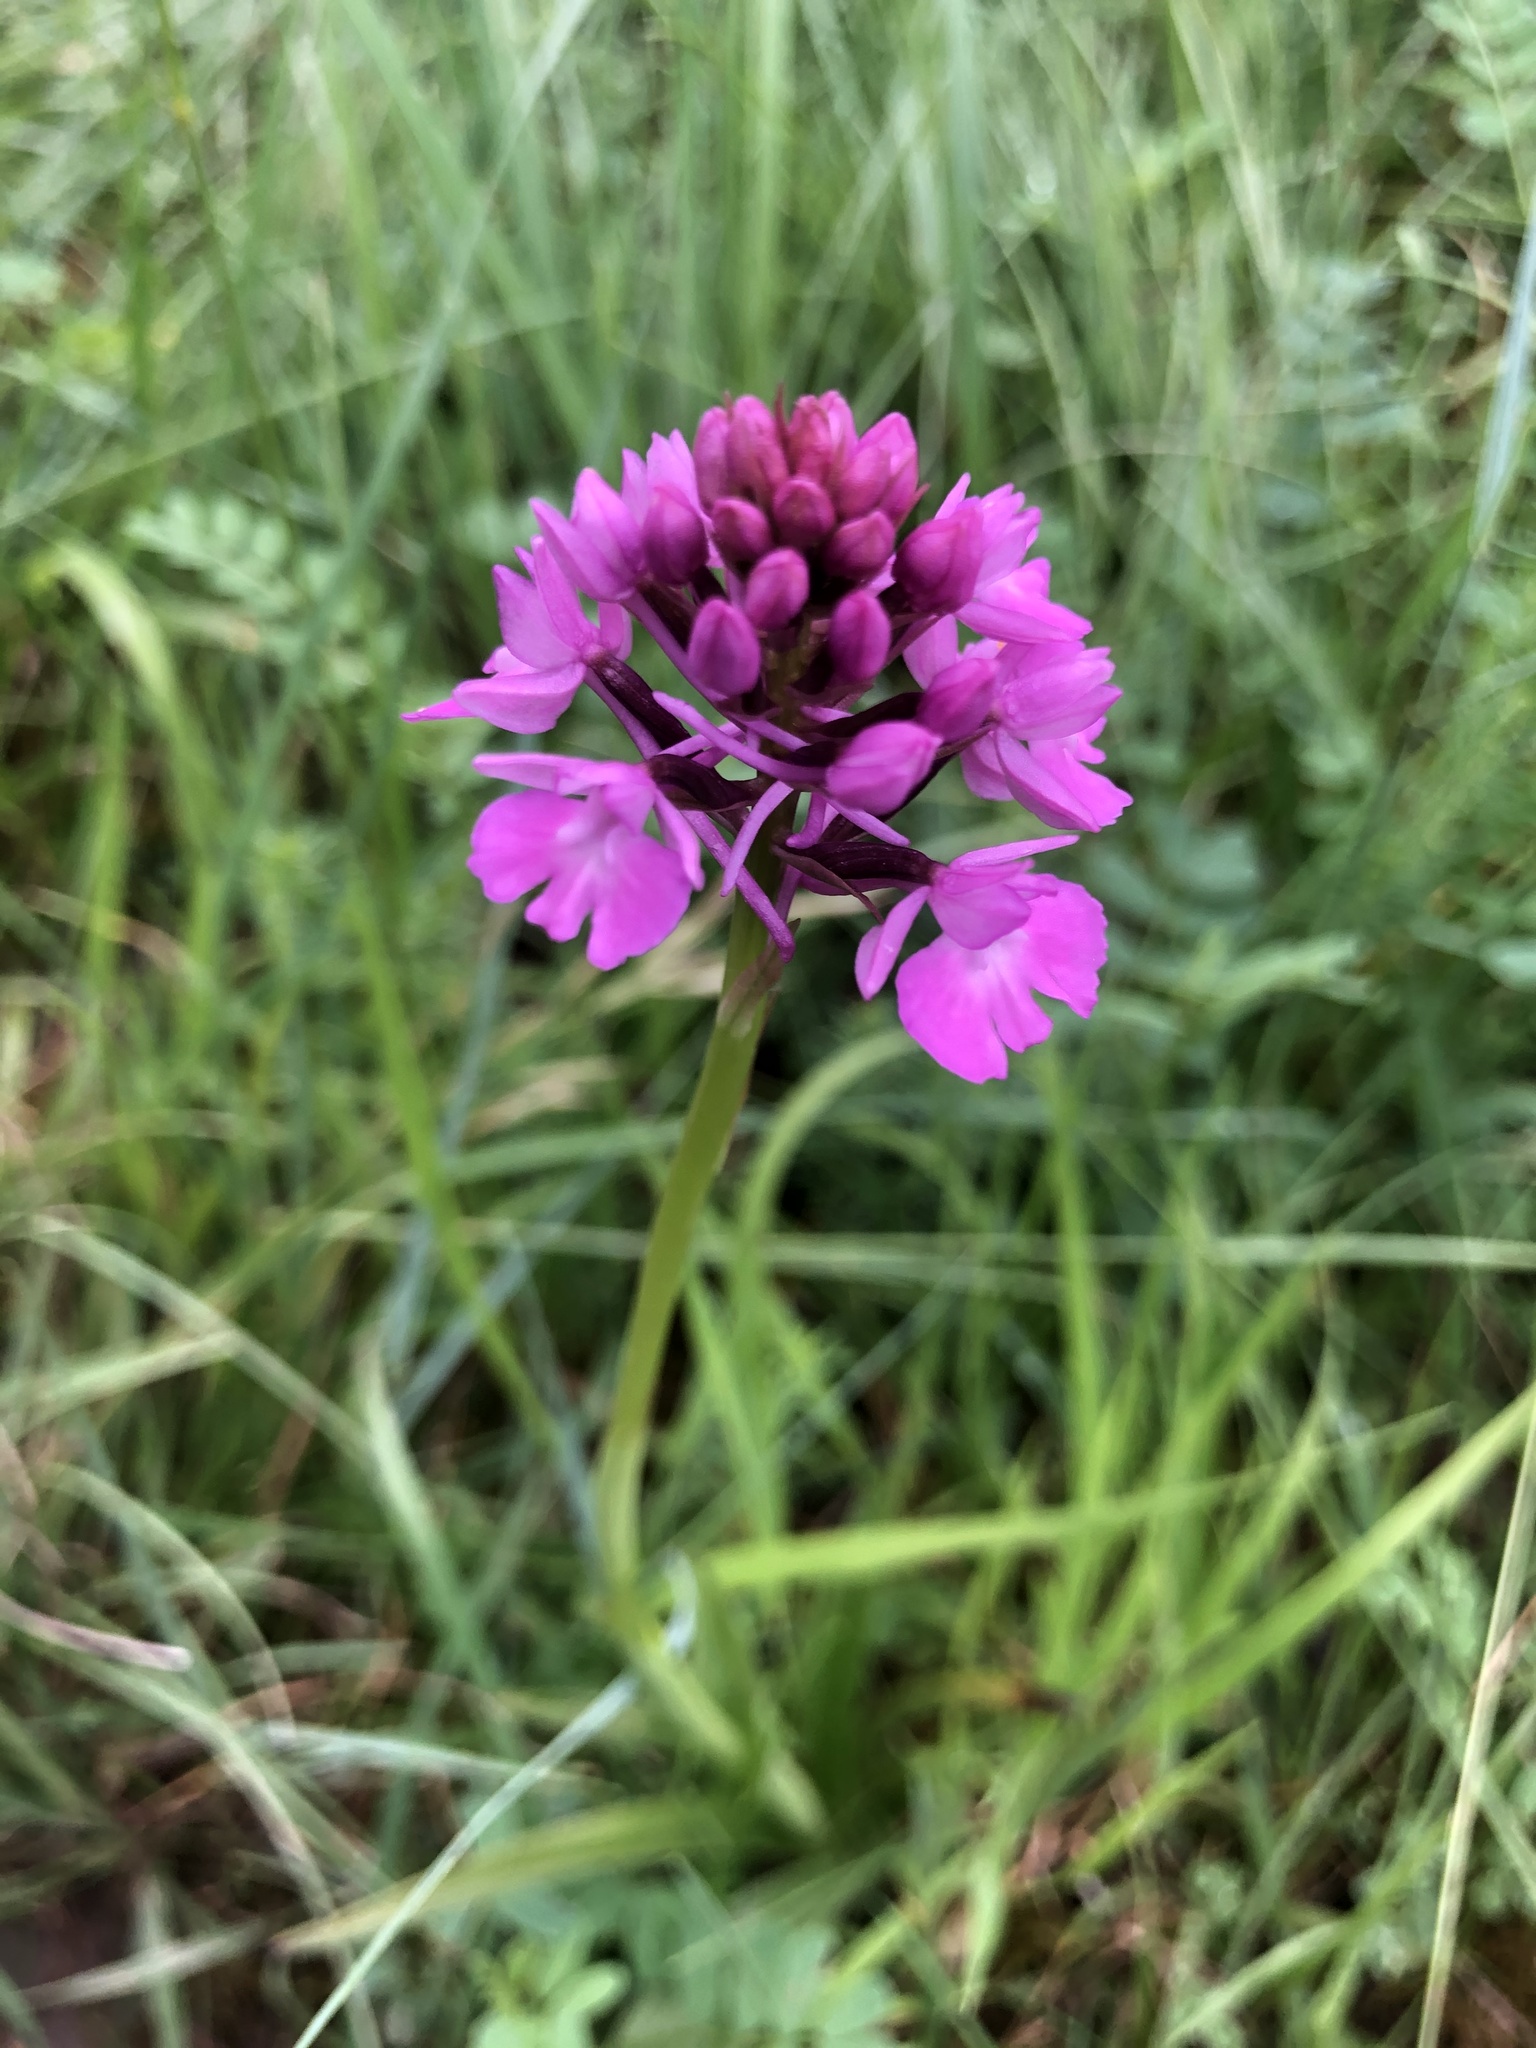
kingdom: Plantae
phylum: Tracheophyta
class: Liliopsida
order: Asparagales
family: Orchidaceae
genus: Anacamptis
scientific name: Anacamptis pyramidalis
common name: Pyramidal orchid
